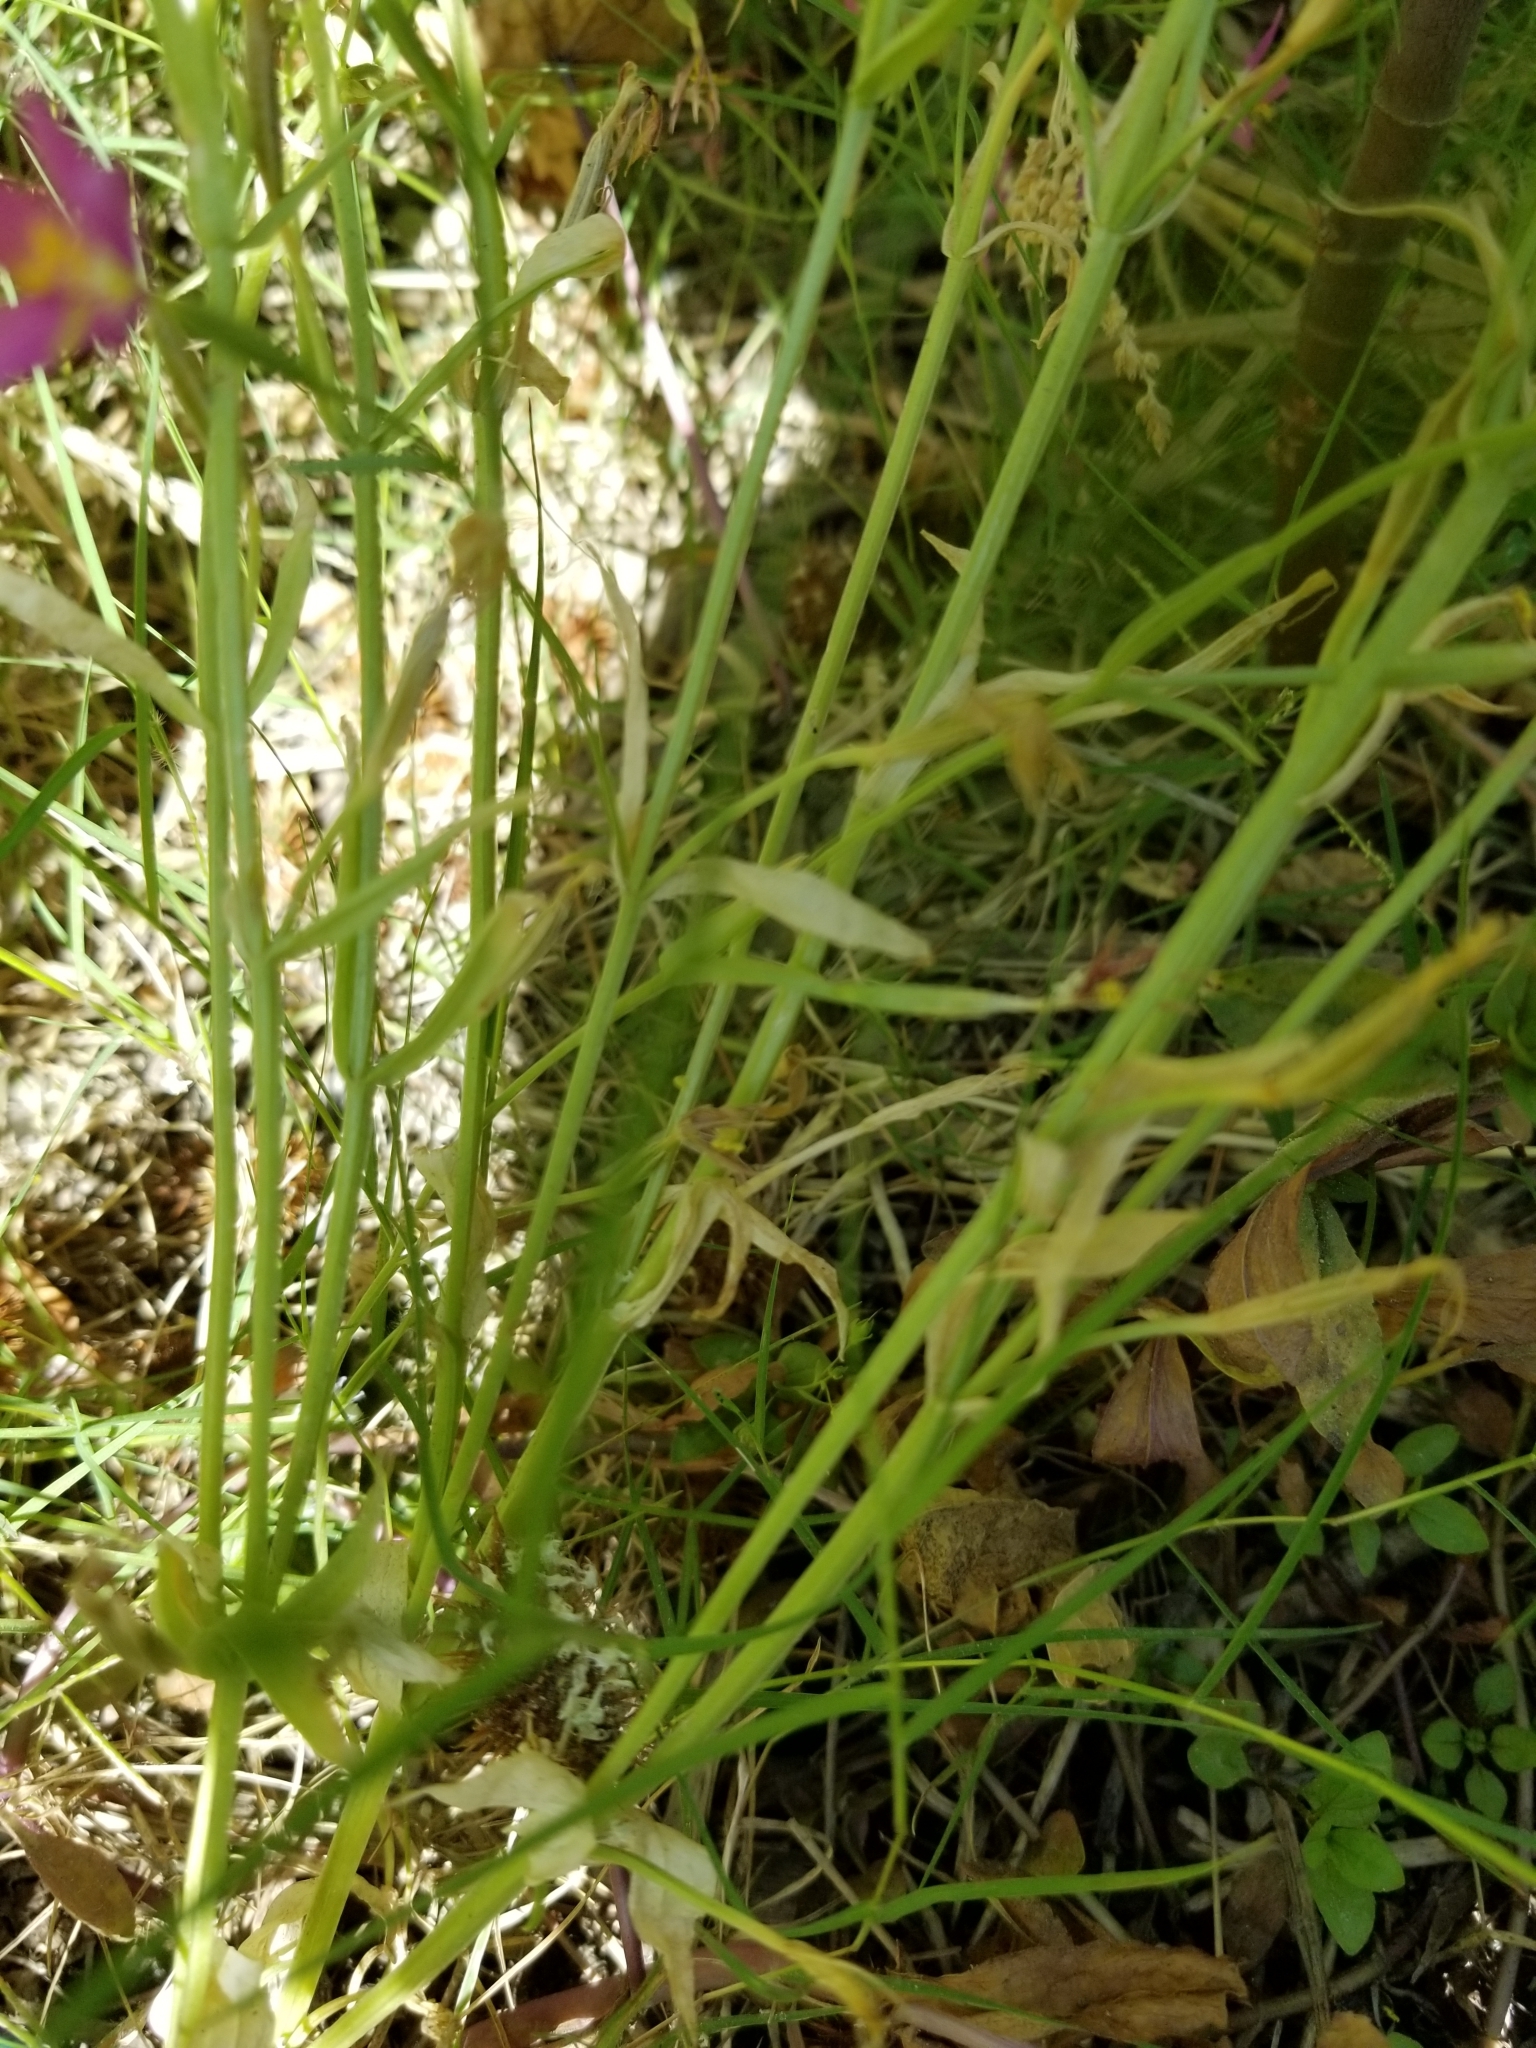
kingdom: Plantae
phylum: Tracheophyta
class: Magnoliopsida
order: Gentianales
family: Gentianaceae
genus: Zeltnera
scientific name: Zeltnera venusta
